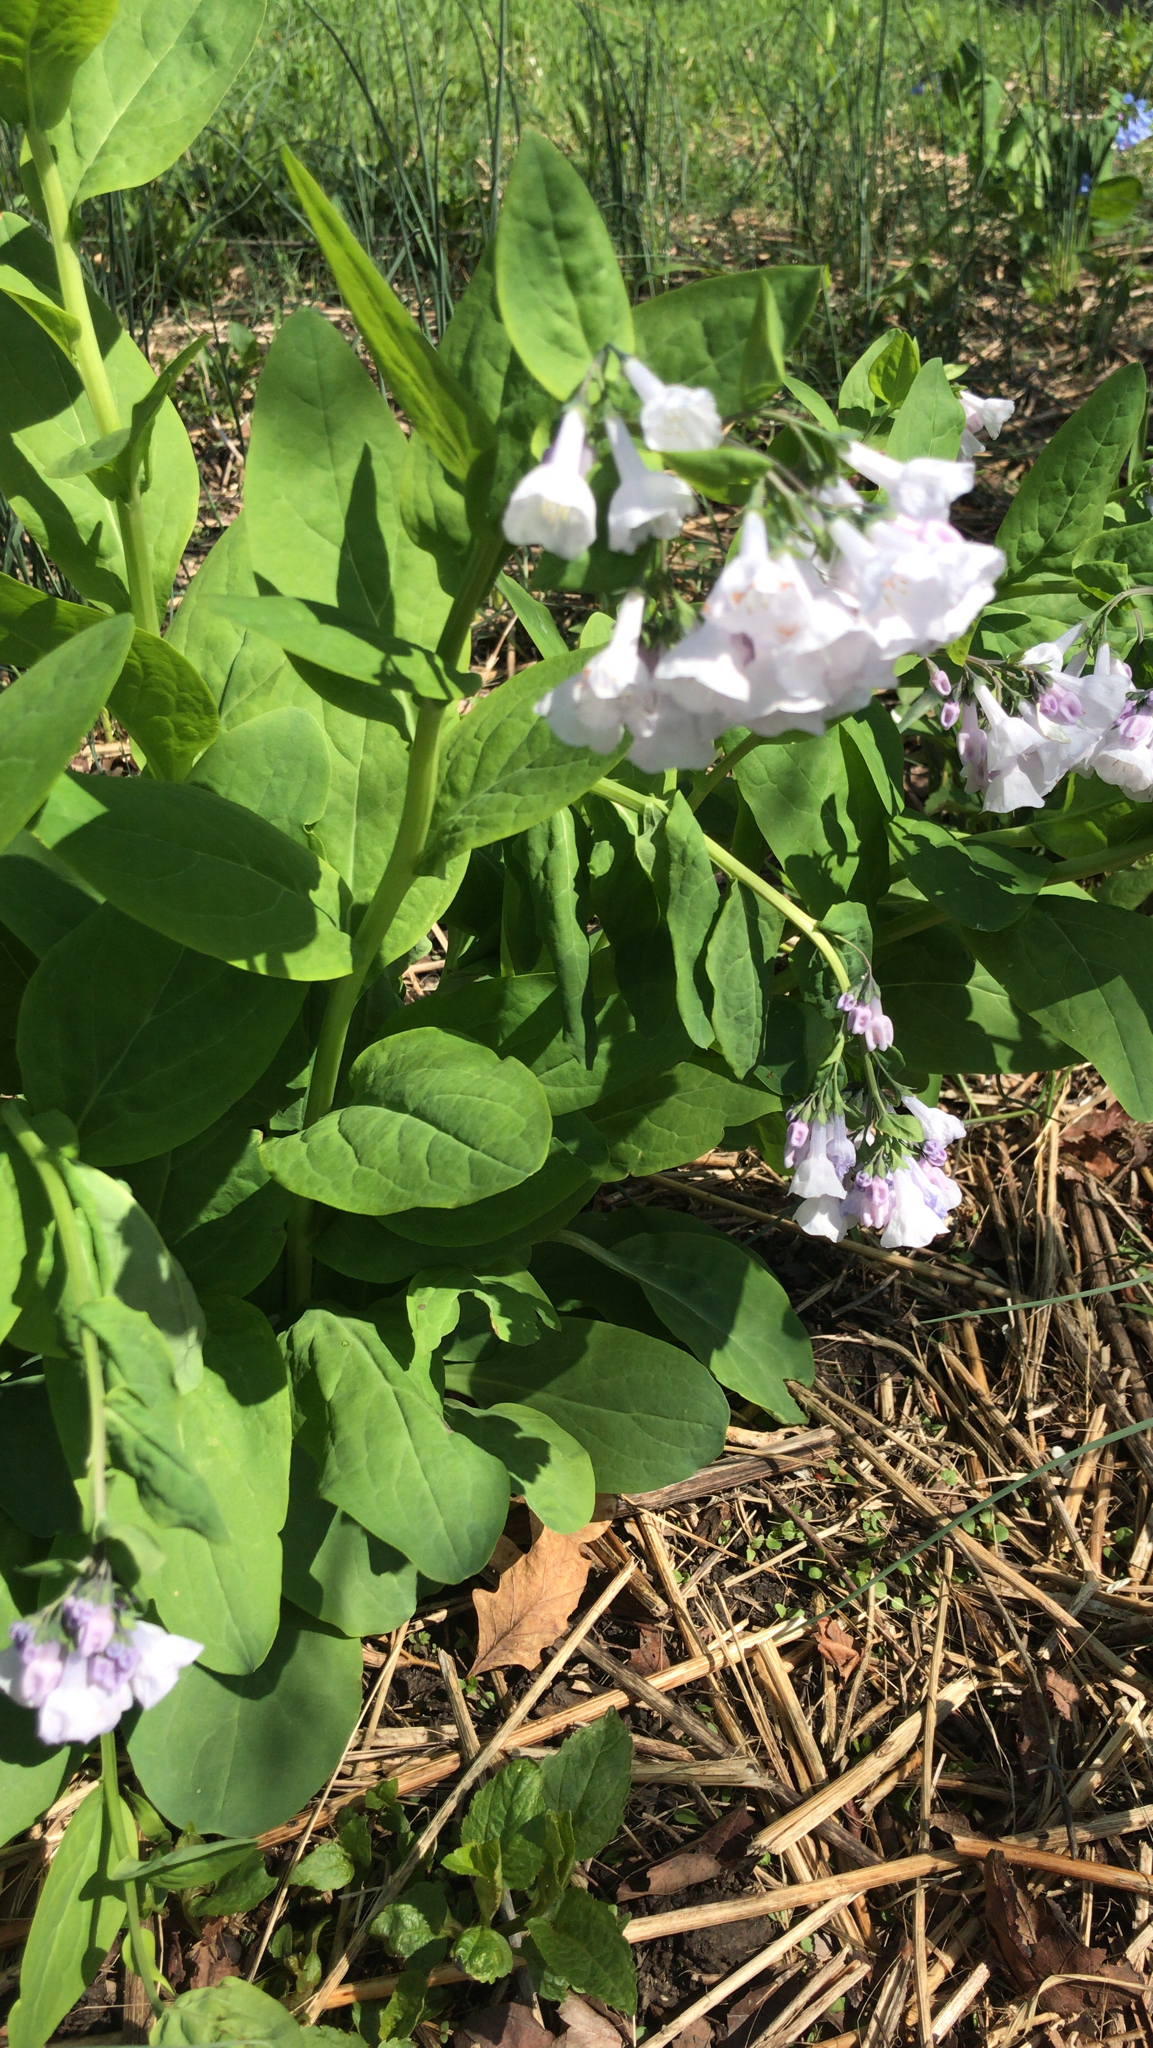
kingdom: Plantae
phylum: Tracheophyta
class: Magnoliopsida
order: Boraginales
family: Boraginaceae
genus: Mertensia
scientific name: Mertensia virginica
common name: Virginia bluebells
